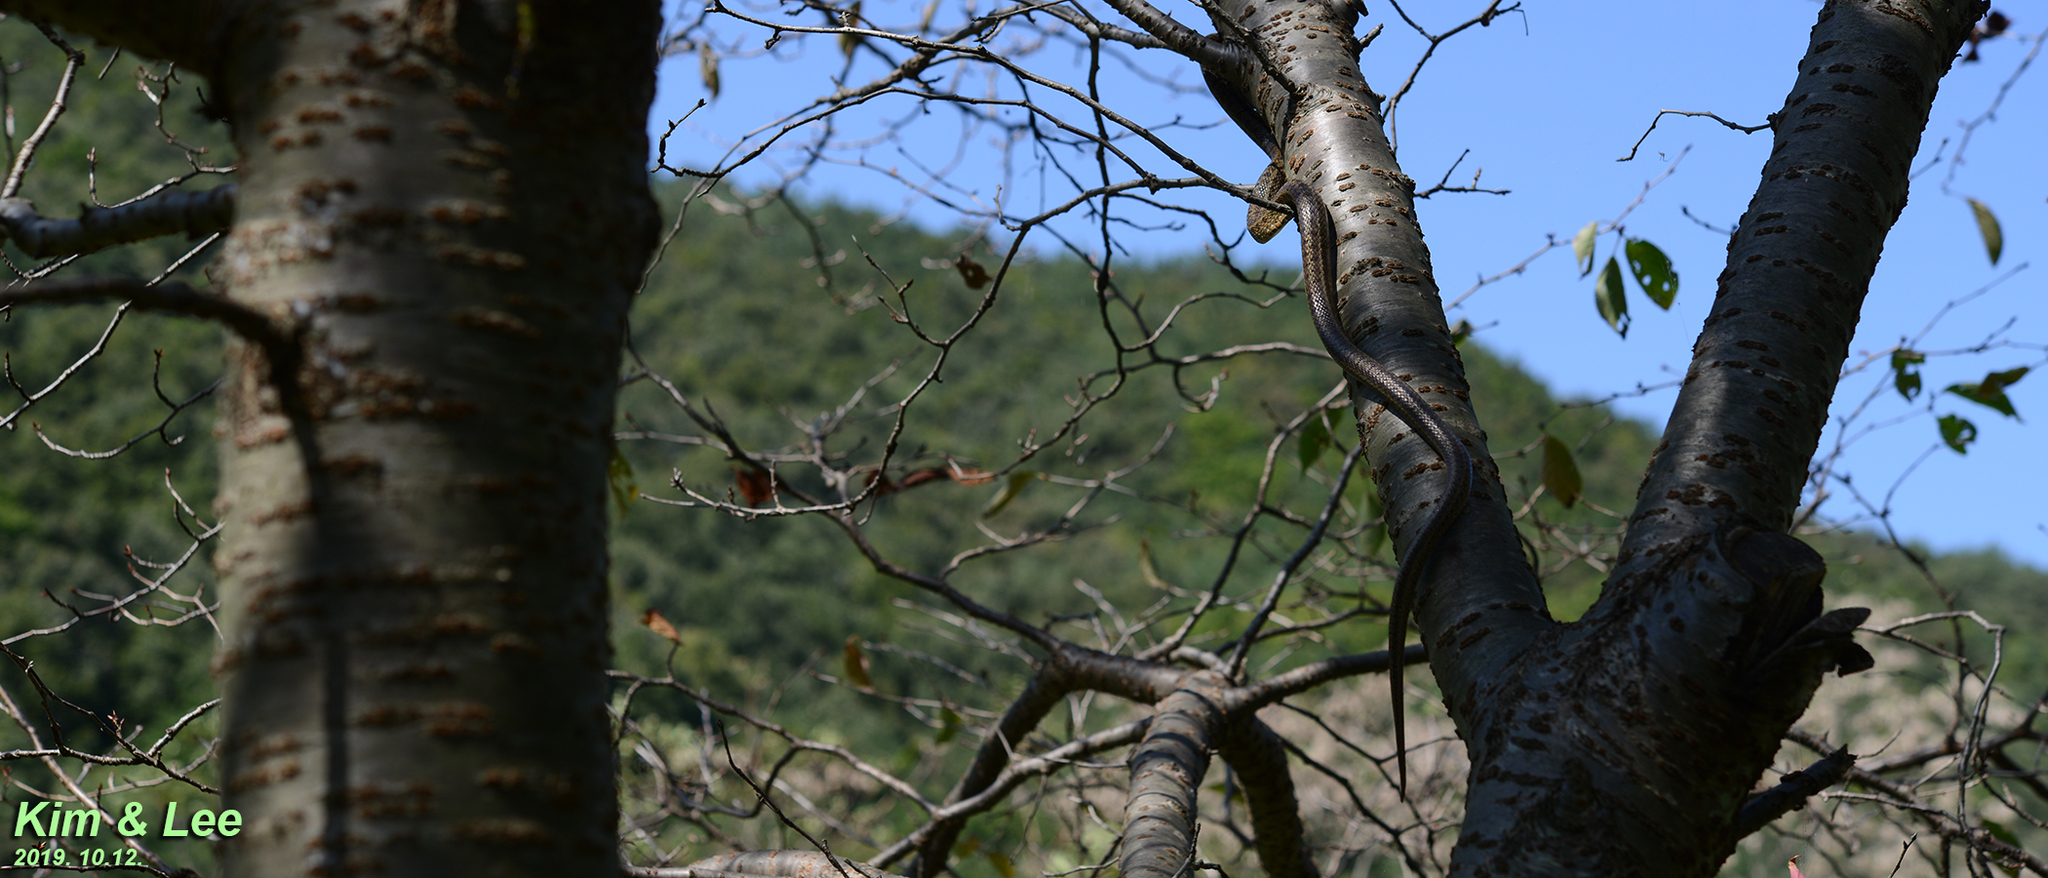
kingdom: Animalia
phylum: Chordata
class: Squamata
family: Colubridae
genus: Elaphe
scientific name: Elaphe dione
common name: Dione ratsnake
